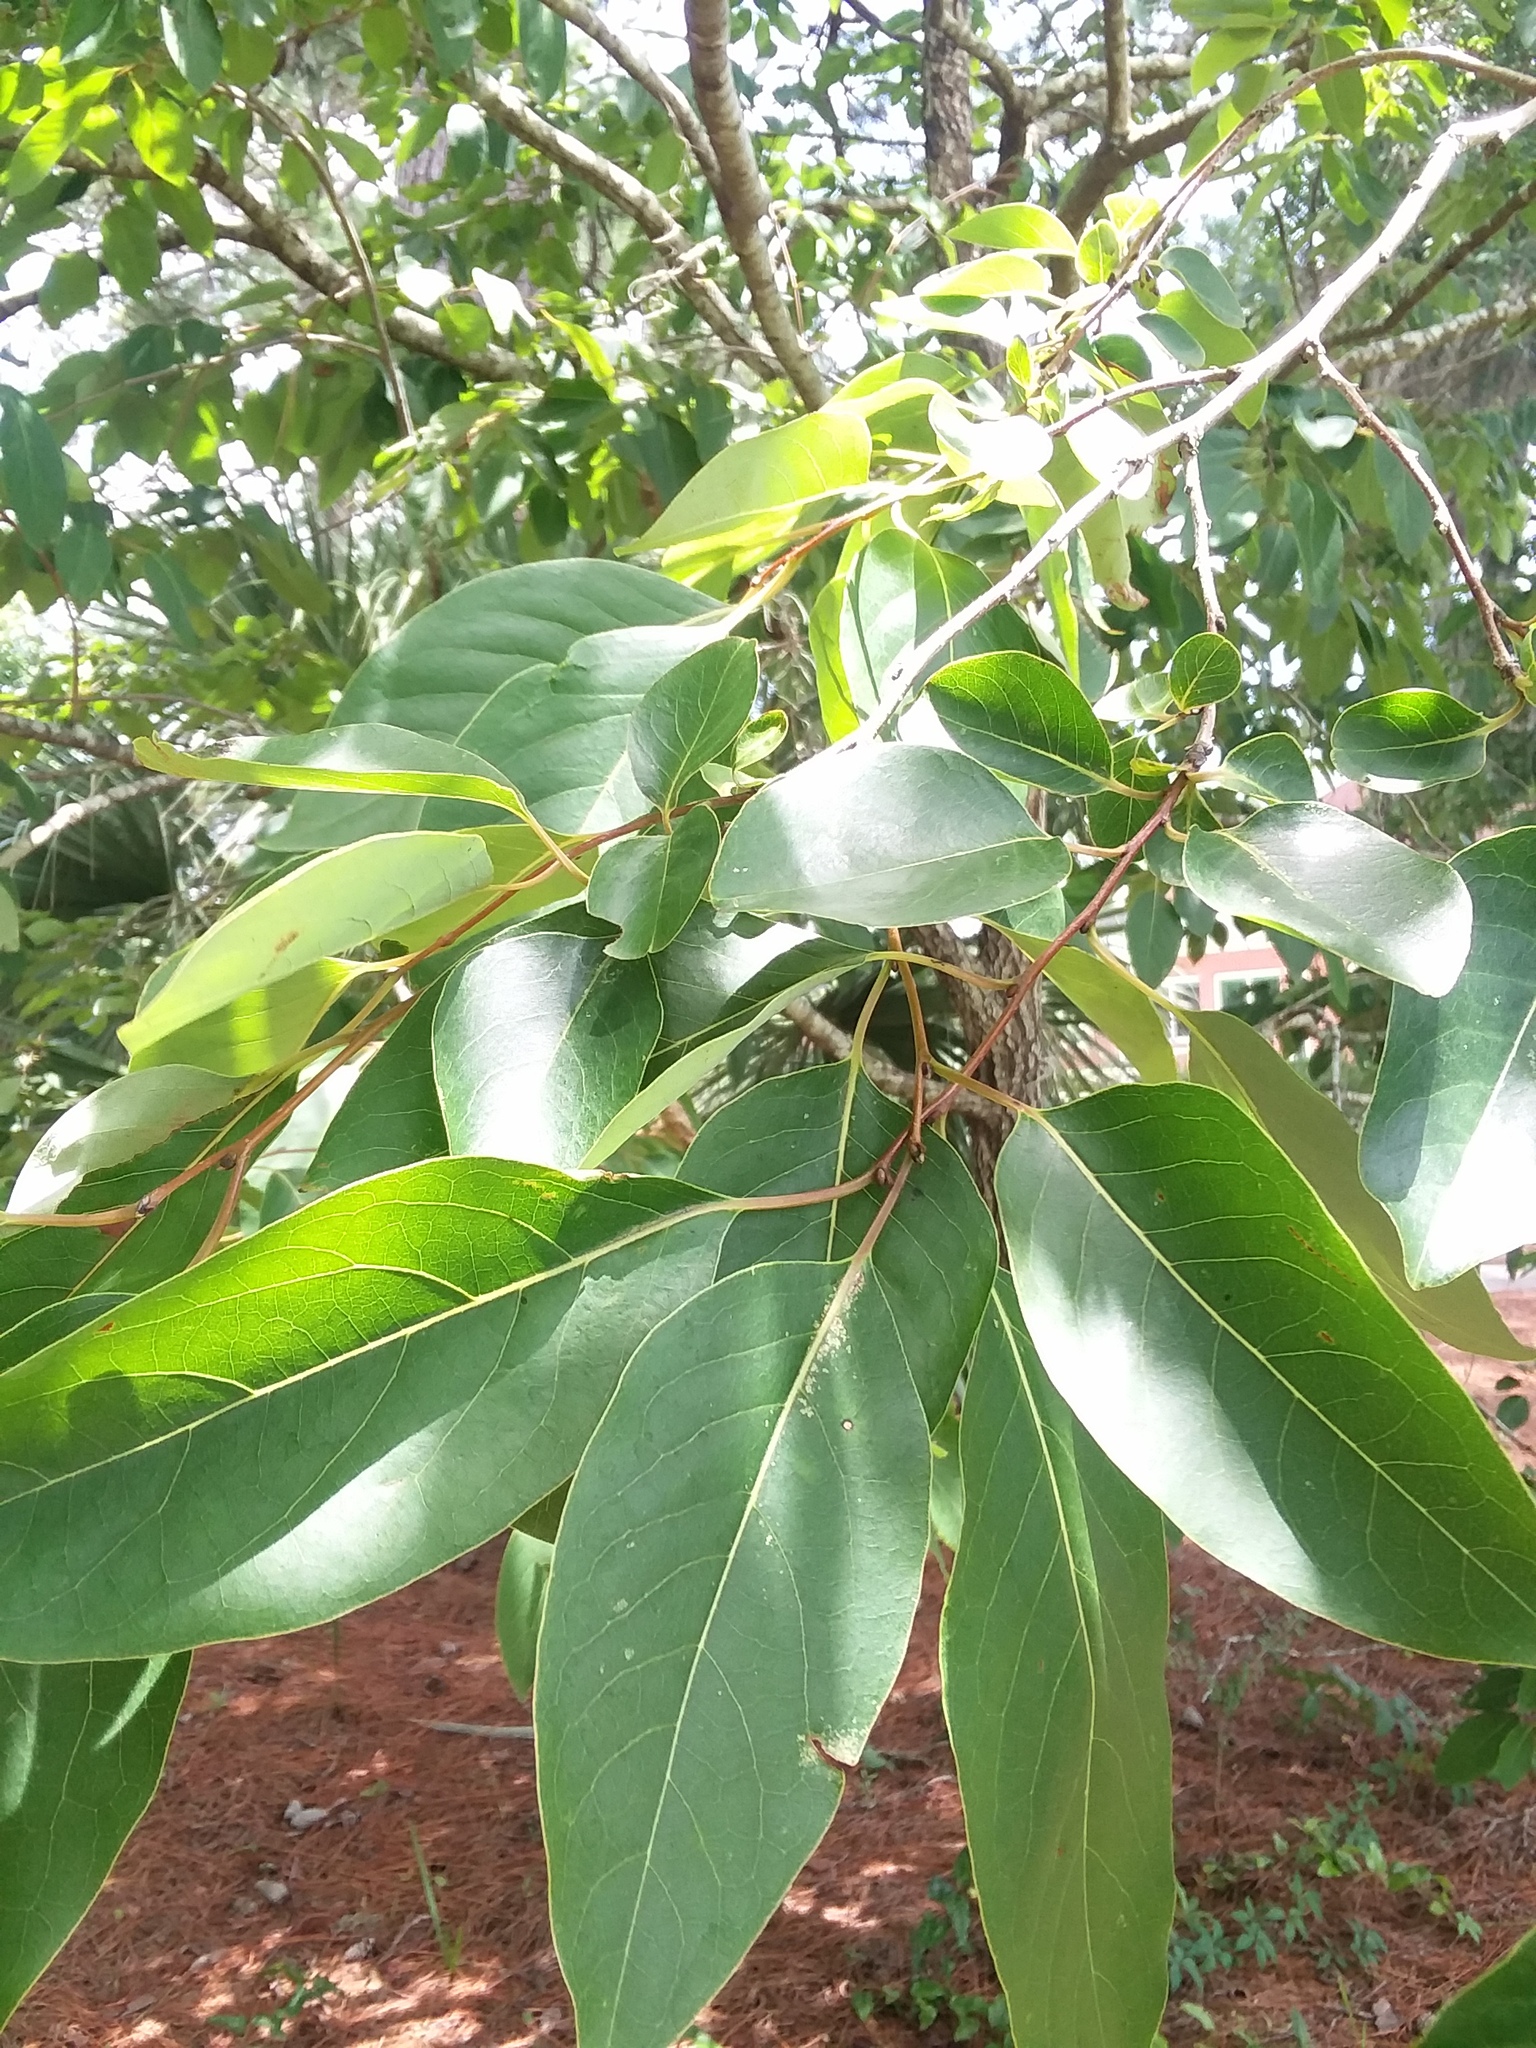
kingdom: Plantae
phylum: Tracheophyta
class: Magnoliopsida
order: Ericales
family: Ebenaceae
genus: Diospyros
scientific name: Diospyros virginiana
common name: Persimmon
